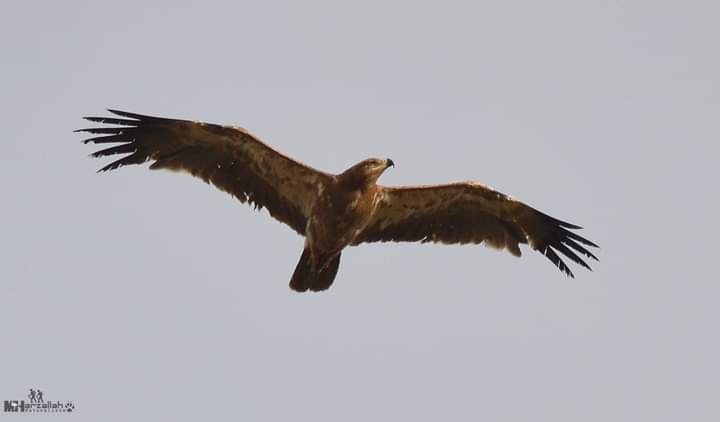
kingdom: Animalia
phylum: Chordata
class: Aves
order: Accipitriformes
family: Accipitridae
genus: Aquila
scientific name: Aquila rapax
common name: Tawny eagle
